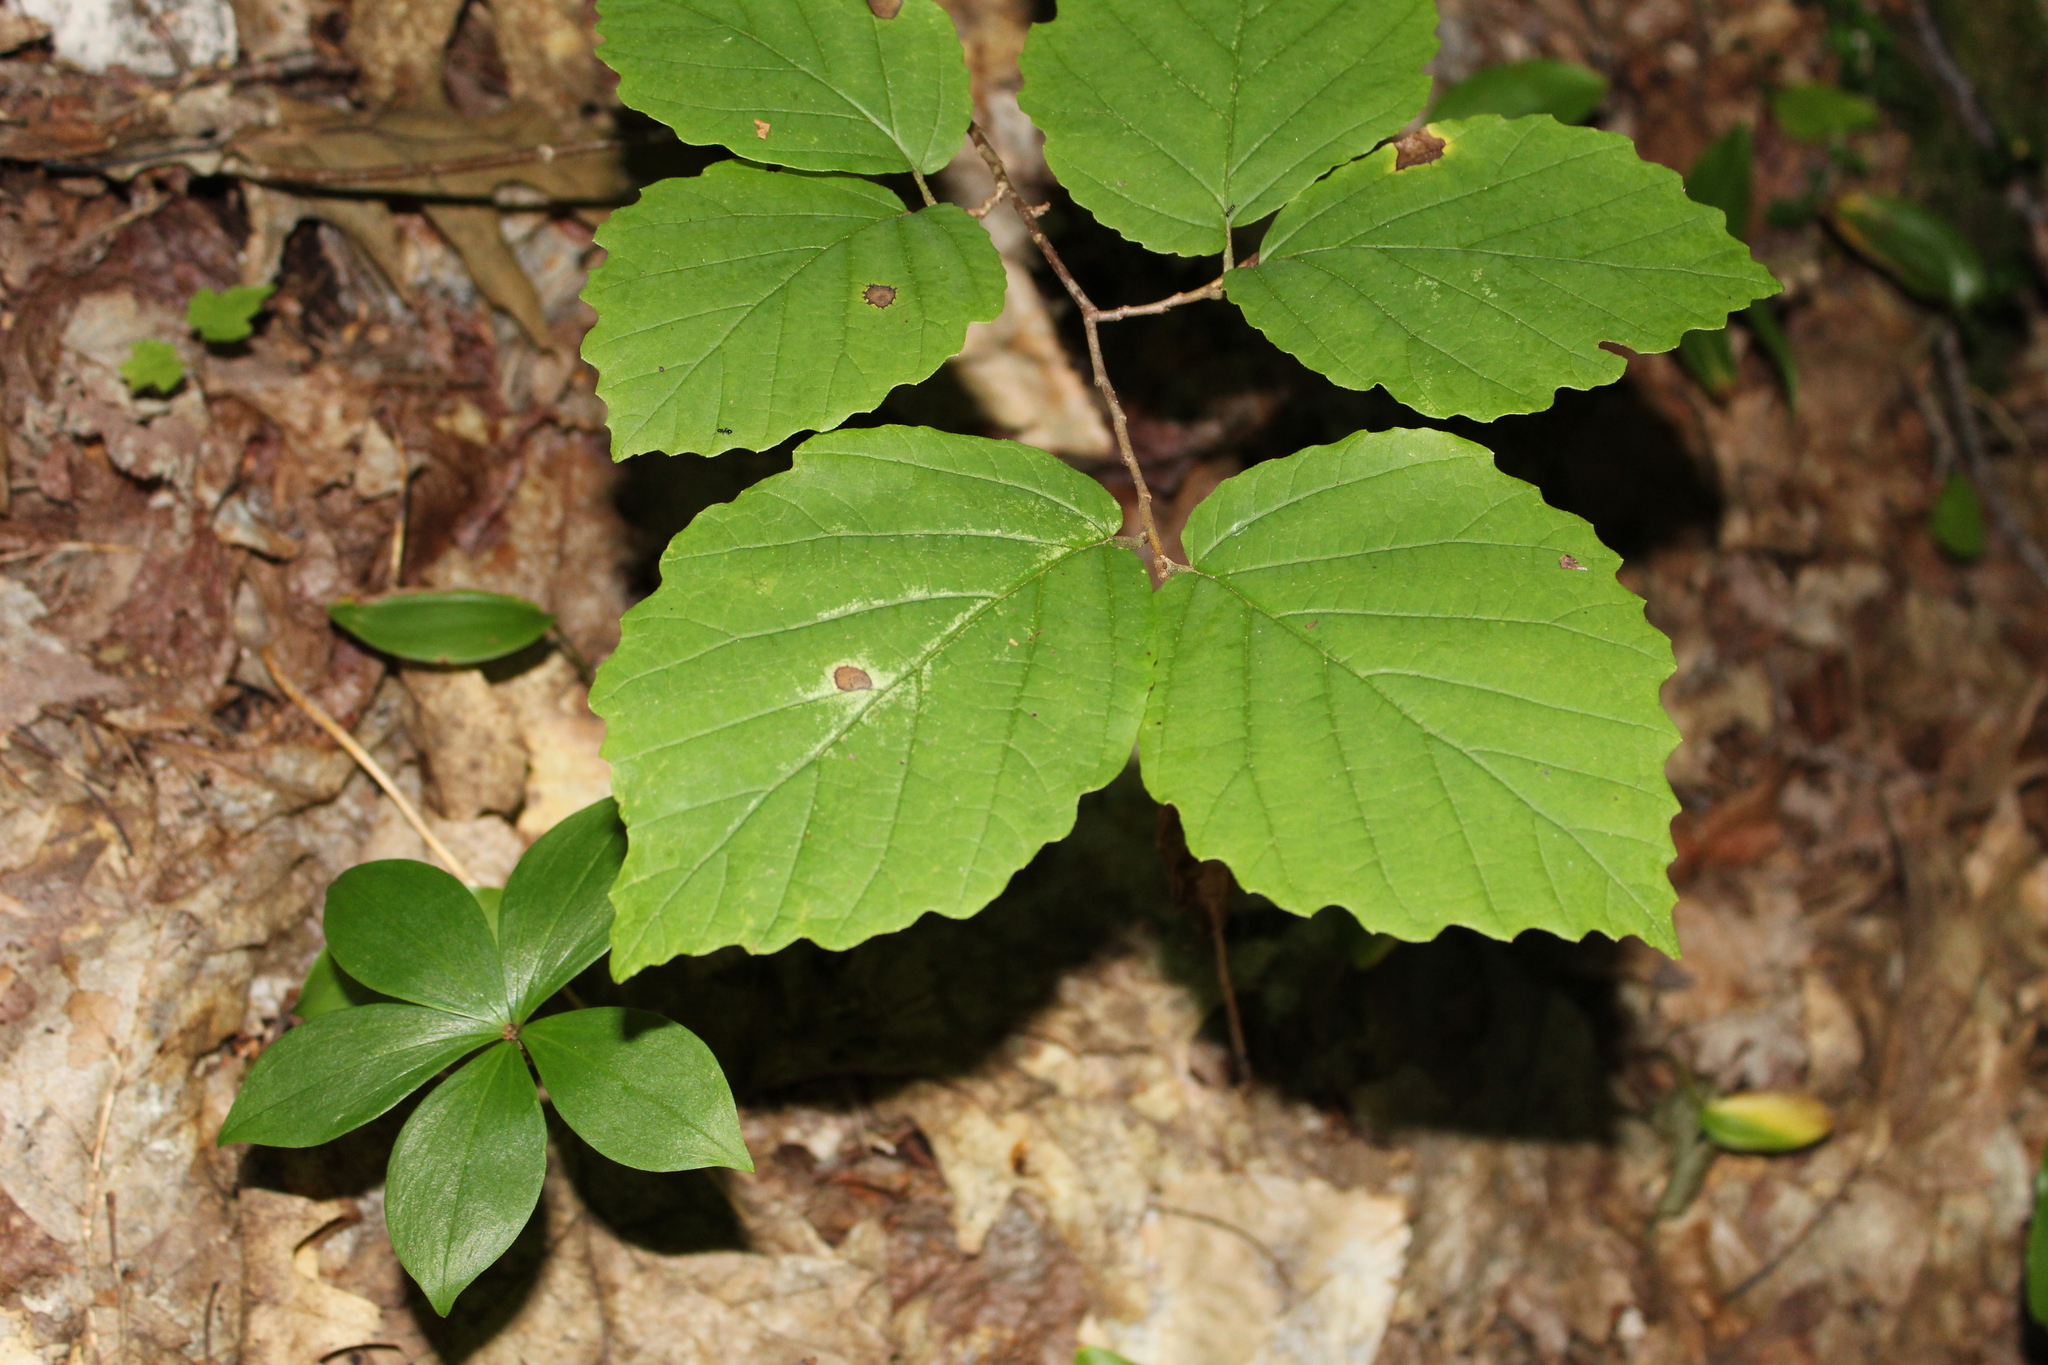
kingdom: Plantae
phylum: Tracheophyta
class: Magnoliopsida
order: Saxifragales
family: Hamamelidaceae
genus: Hamamelis
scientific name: Hamamelis virginiana
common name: Witch-hazel
